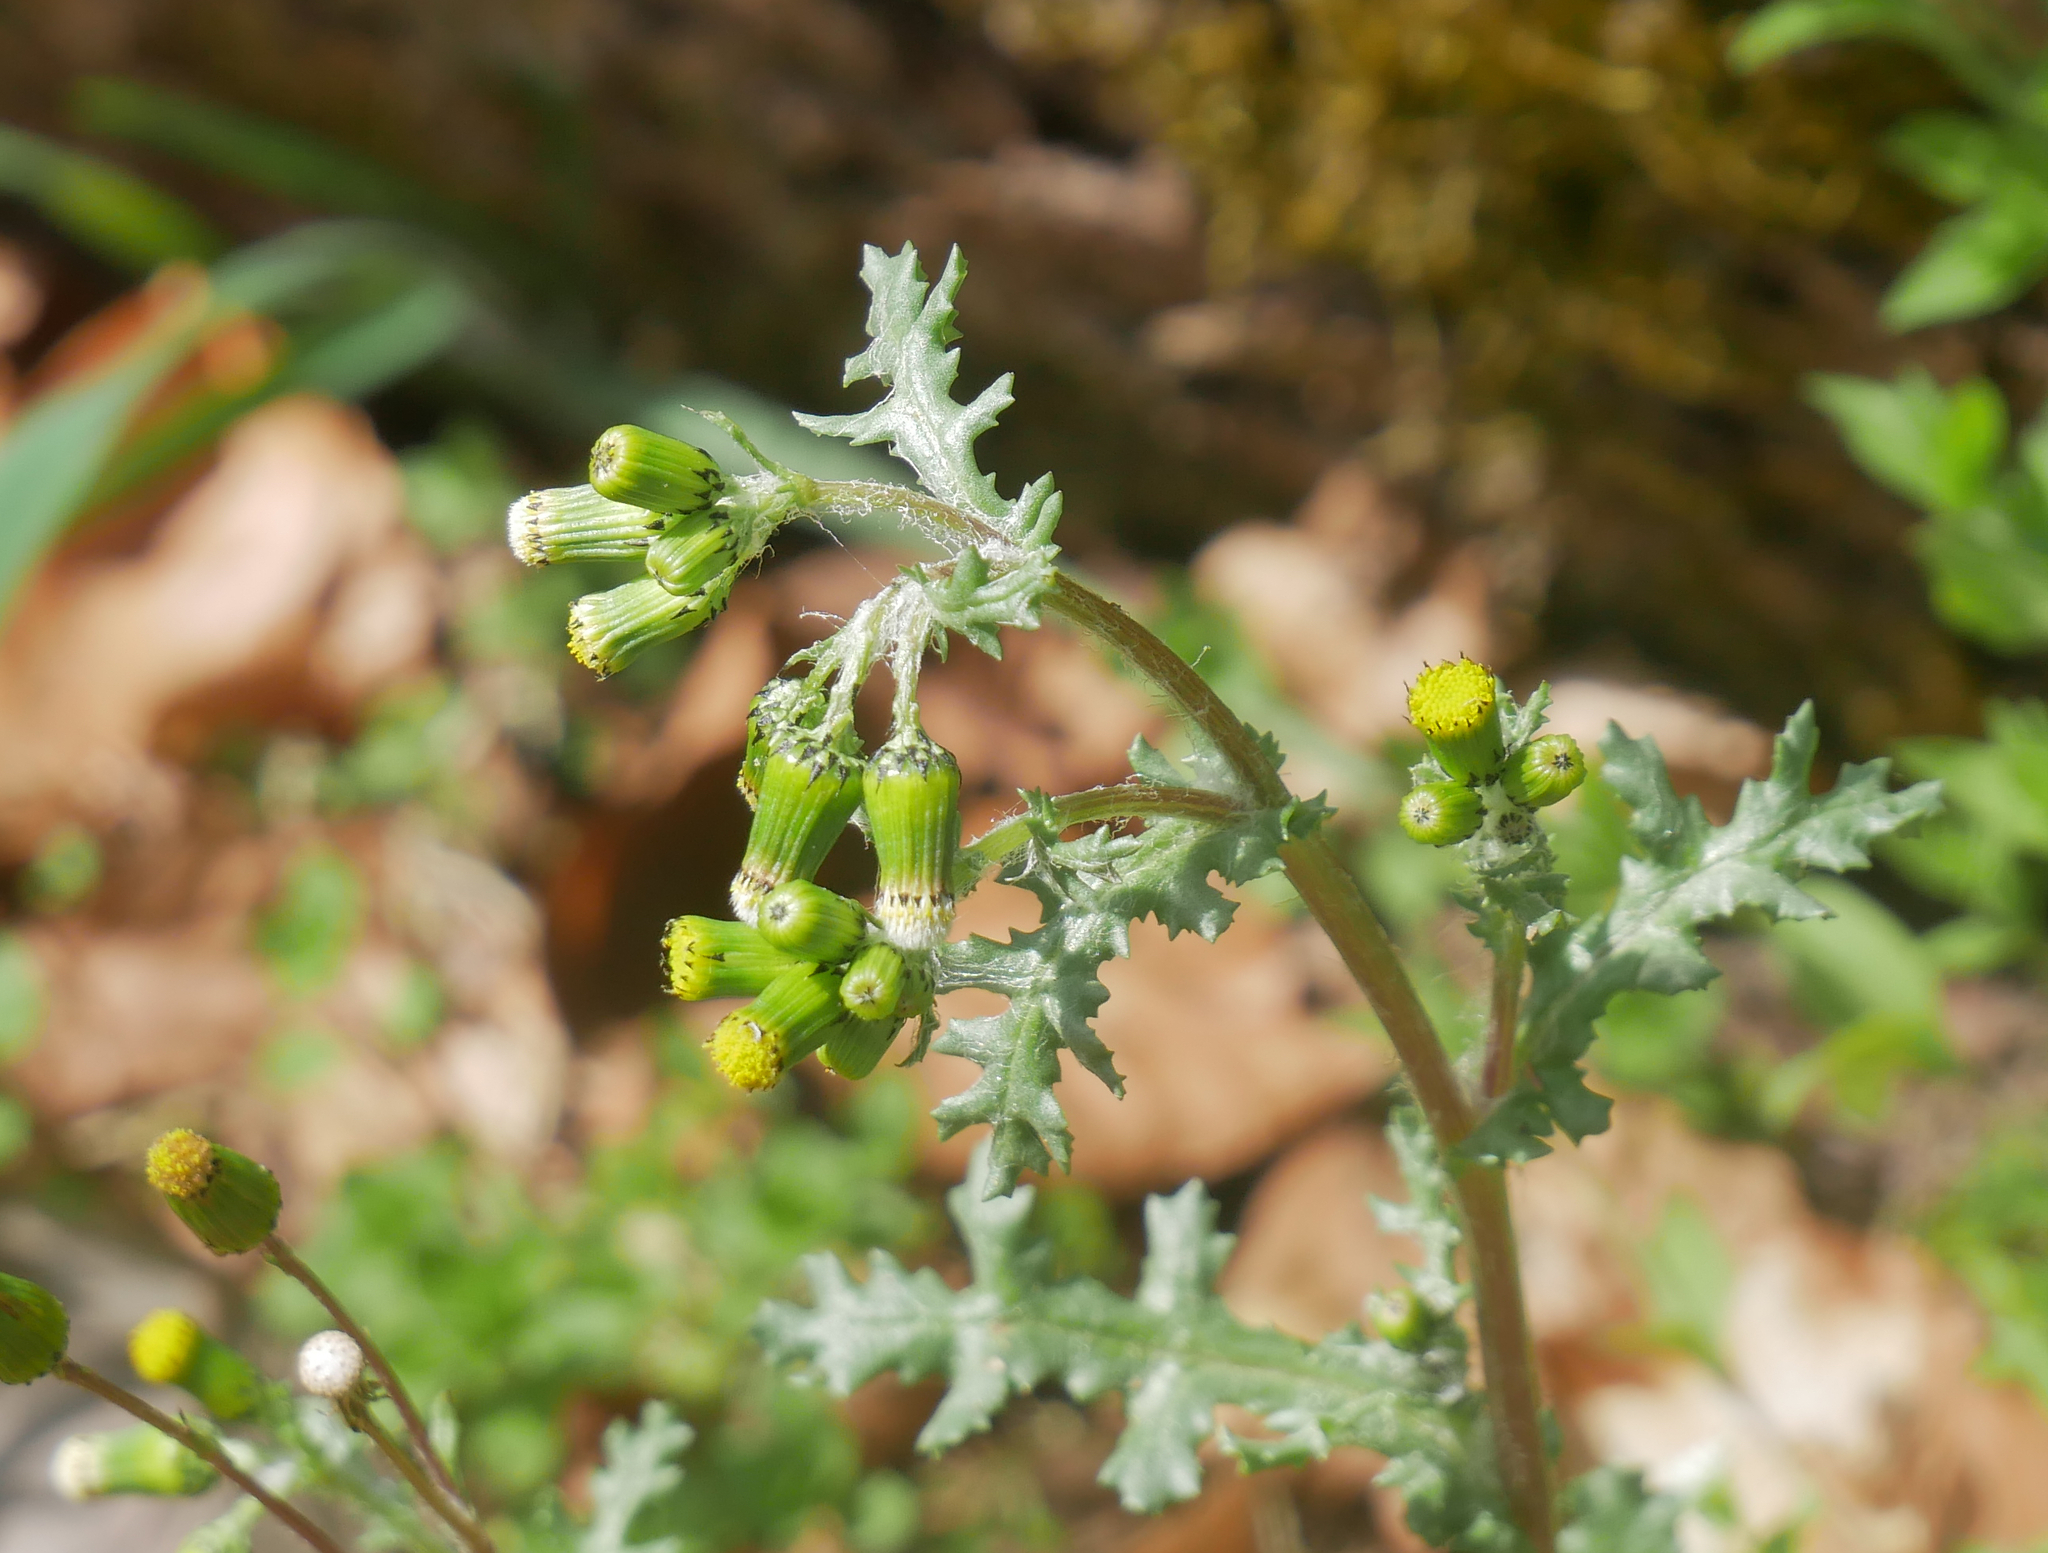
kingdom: Plantae
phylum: Tracheophyta
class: Magnoliopsida
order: Asterales
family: Asteraceae
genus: Senecio
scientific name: Senecio vulgaris
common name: Old-man-in-the-spring
